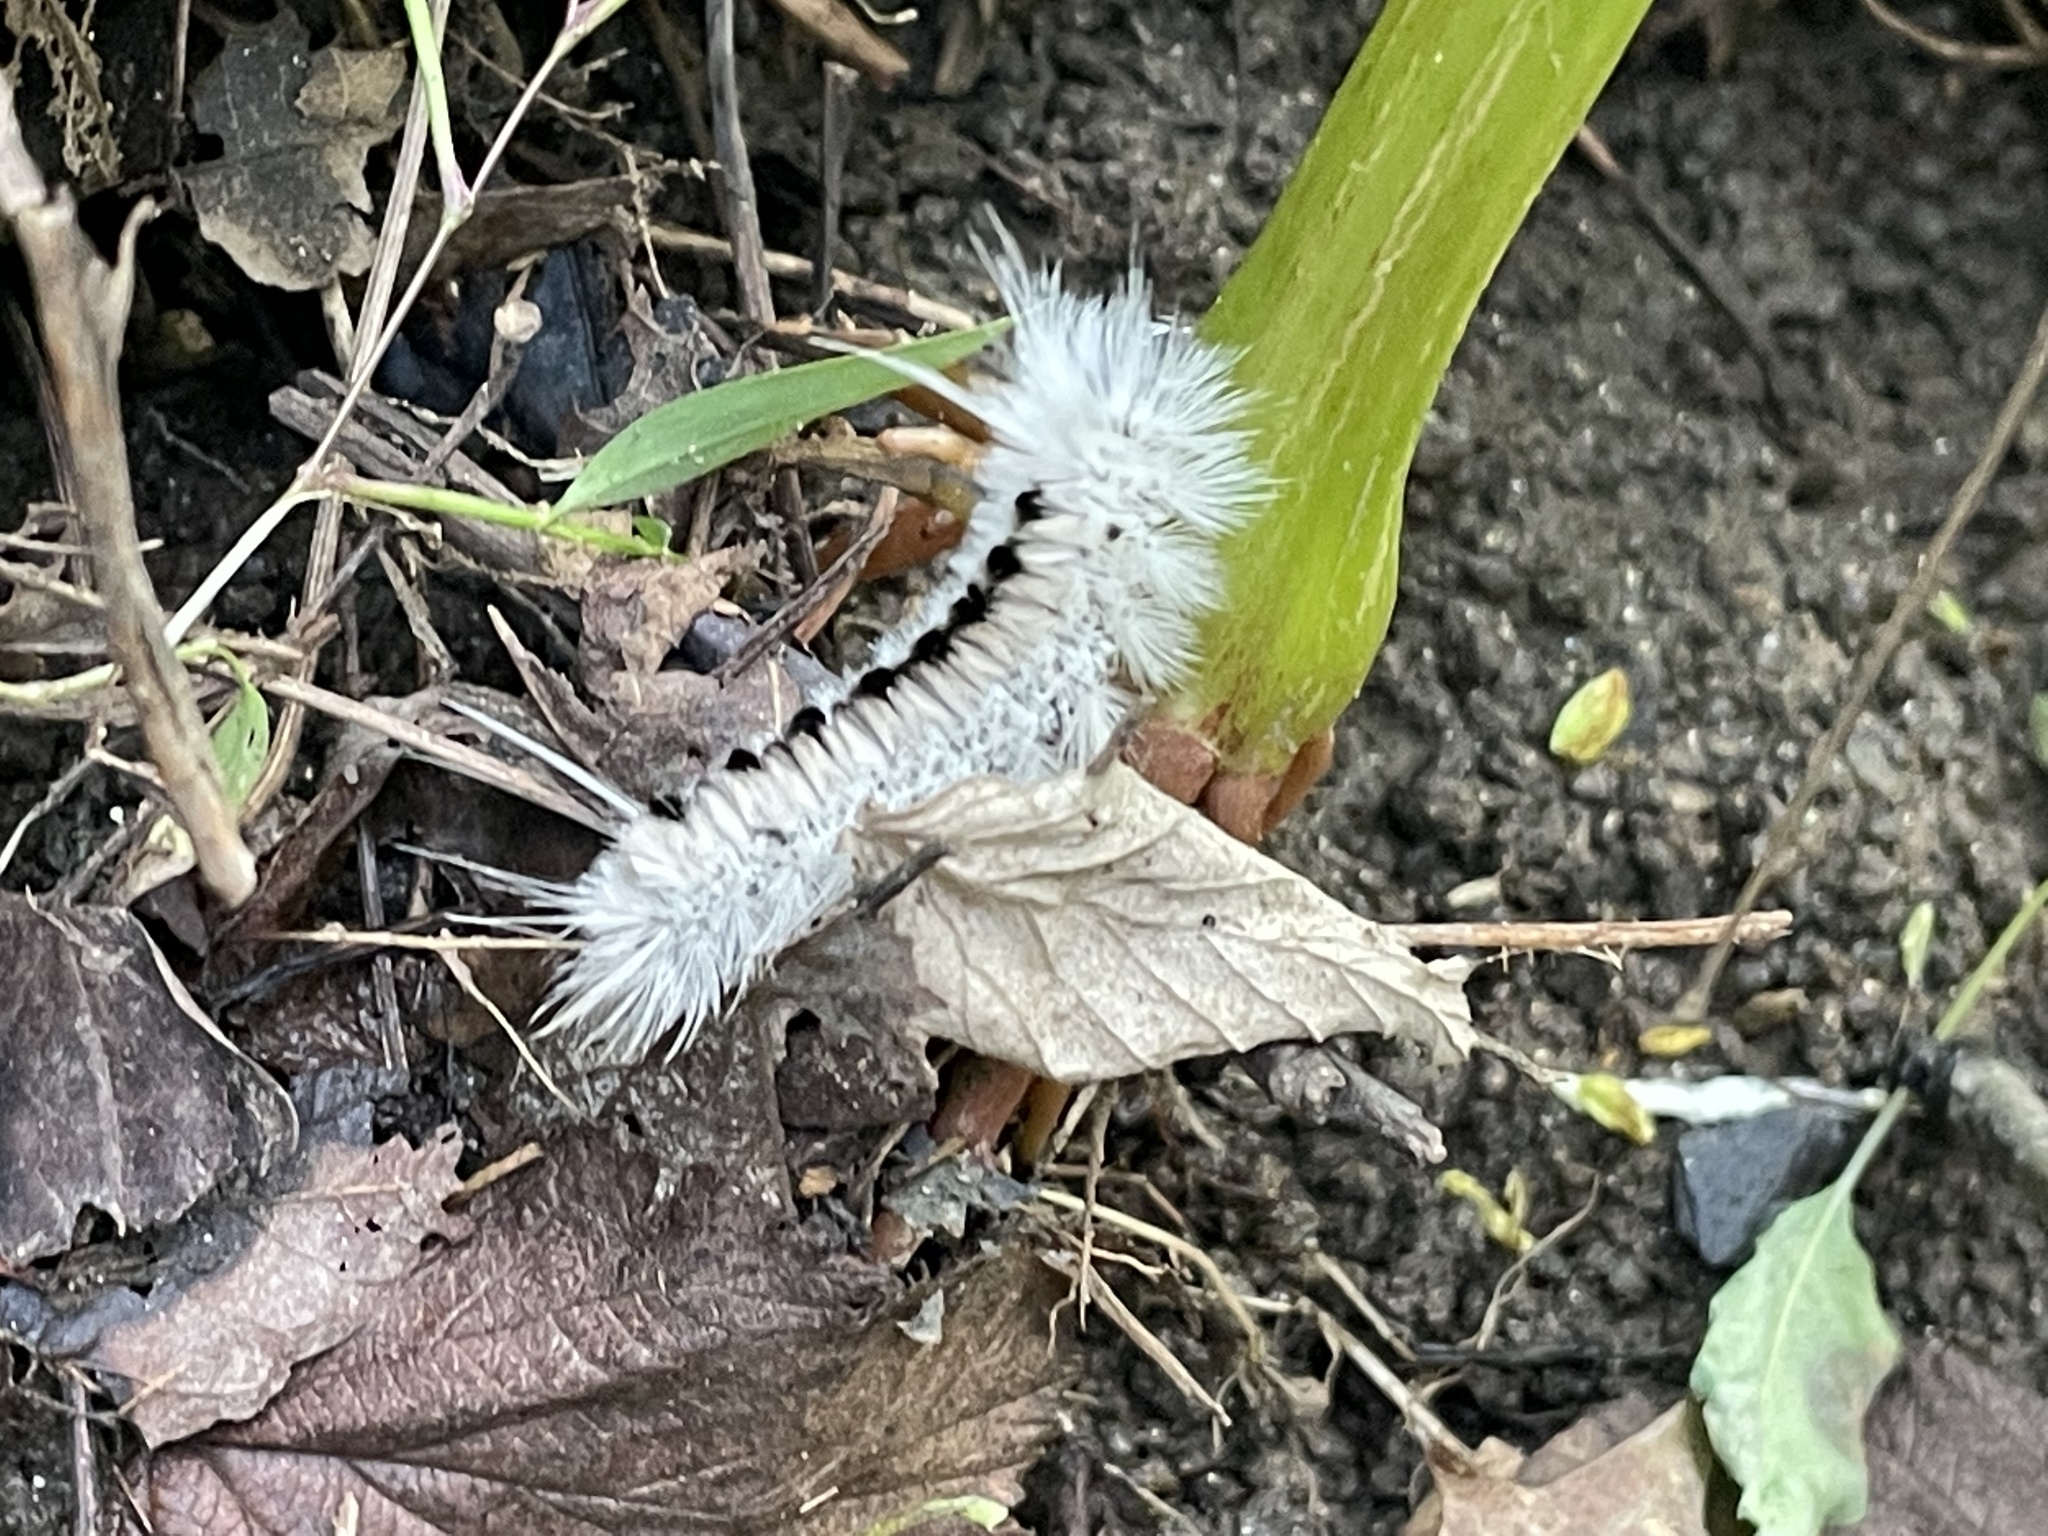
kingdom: Animalia
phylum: Arthropoda
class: Insecta
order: Lepidoptera
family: Erebidae
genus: Lophocampa
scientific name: Lophocampa caryae
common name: Hickory tussock moth
